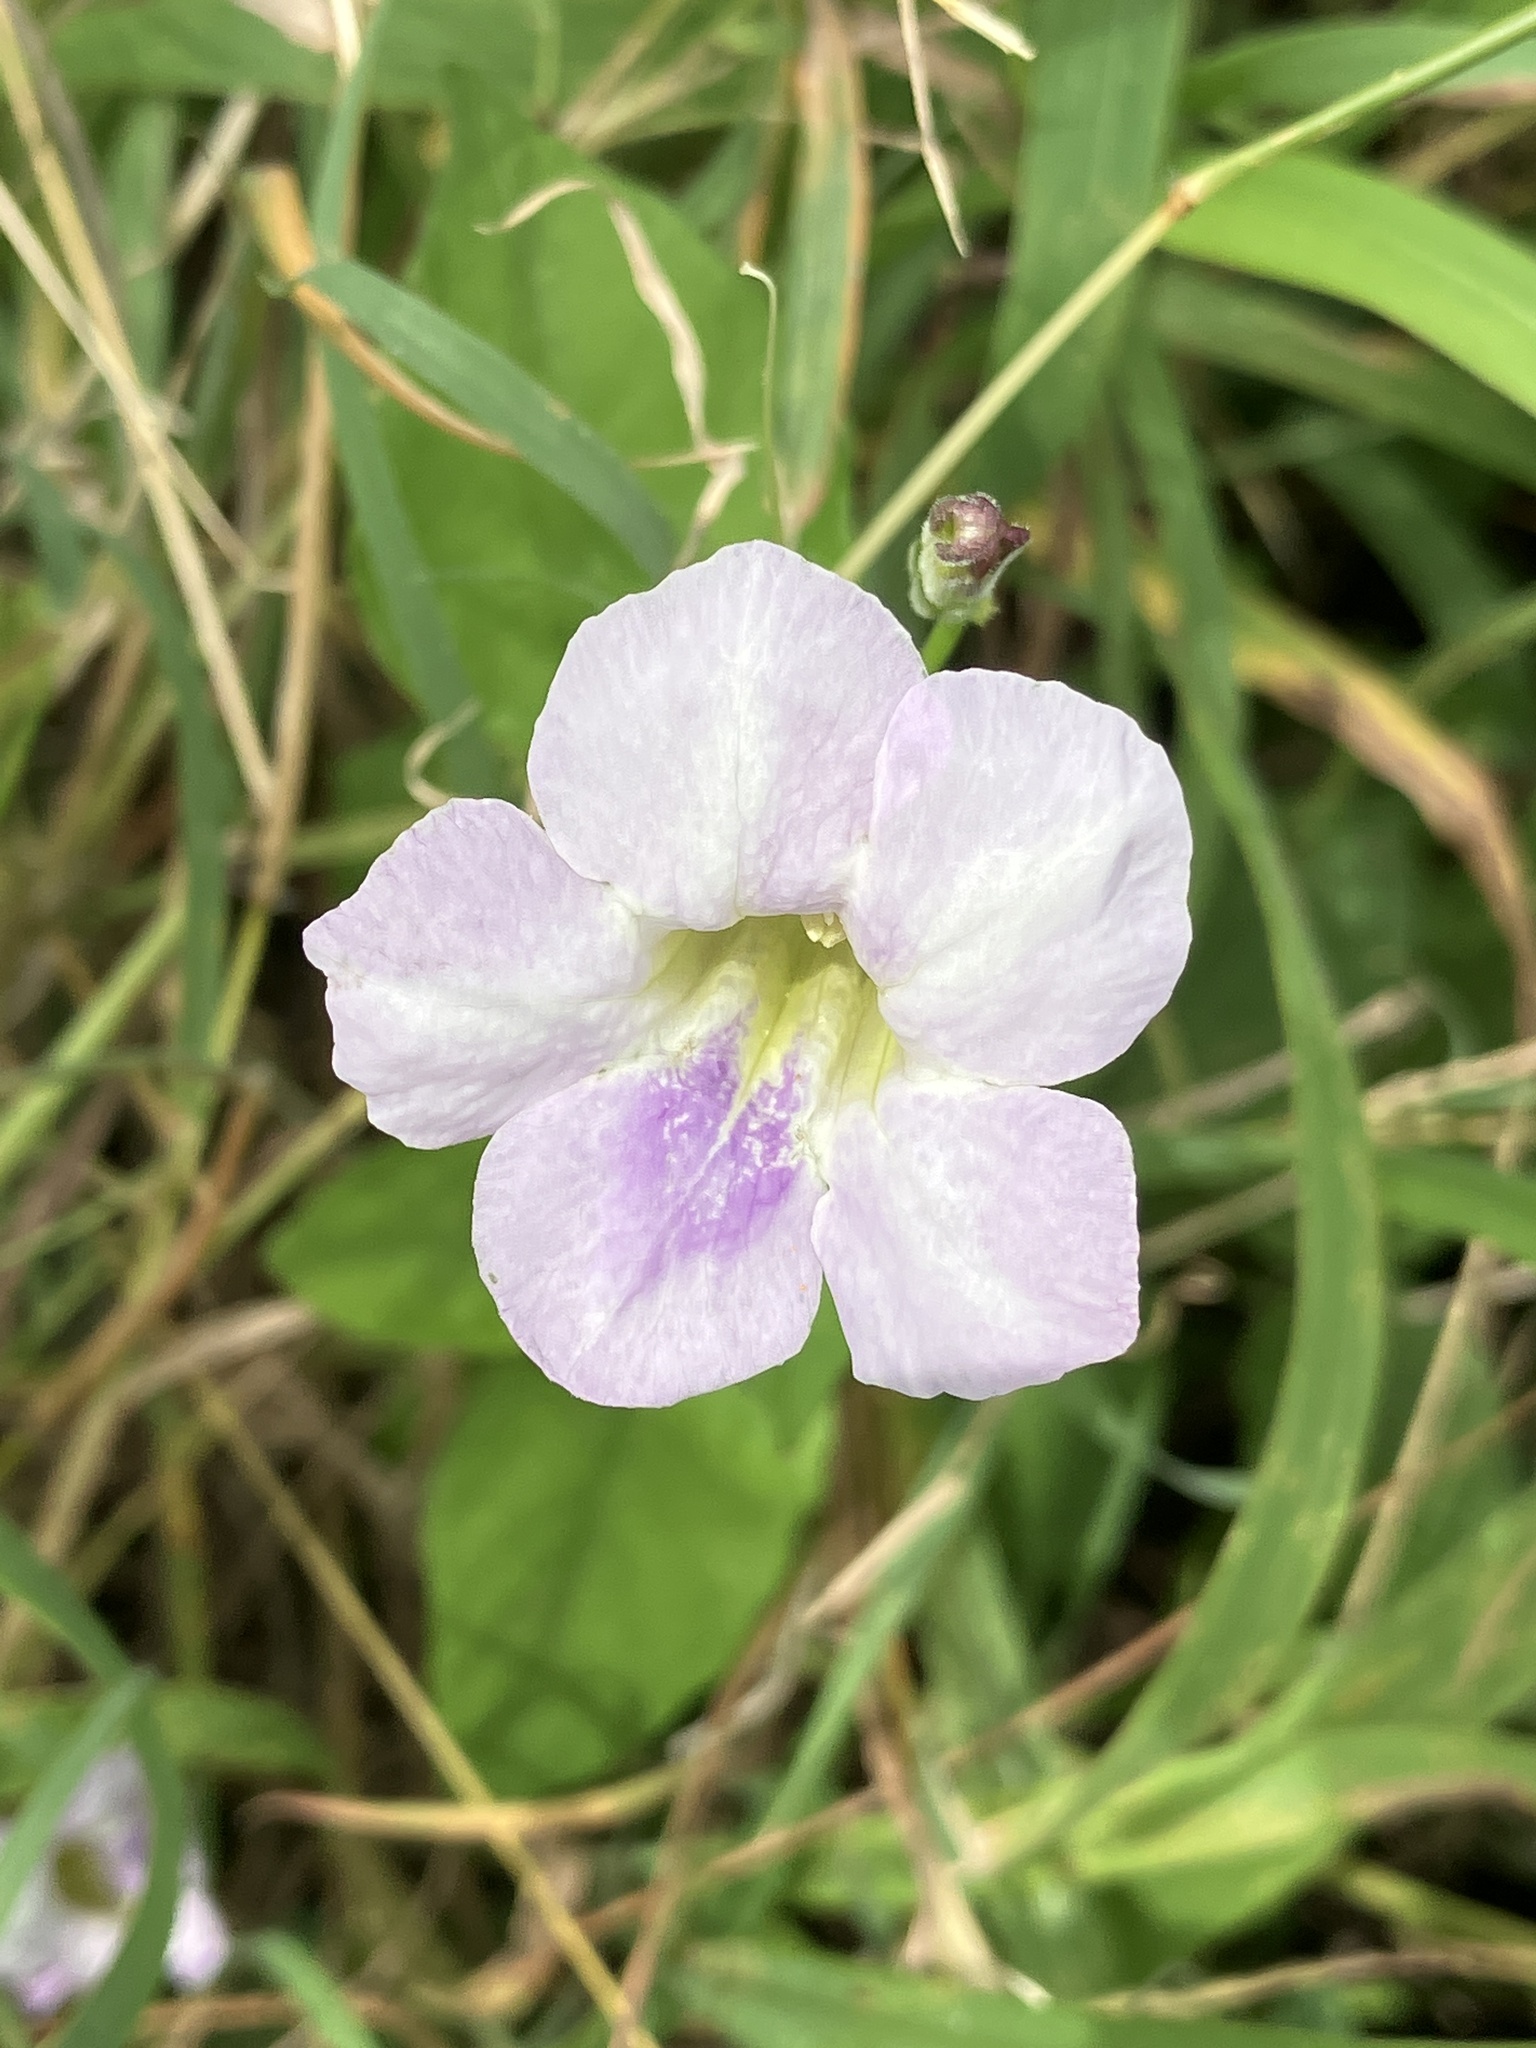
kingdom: Plantae
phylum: Tracheophyta
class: Magnoliopsida
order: Lamiales
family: Acanthaceae
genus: Asystasia
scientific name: Asystasia gangetica
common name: Chinese violet
